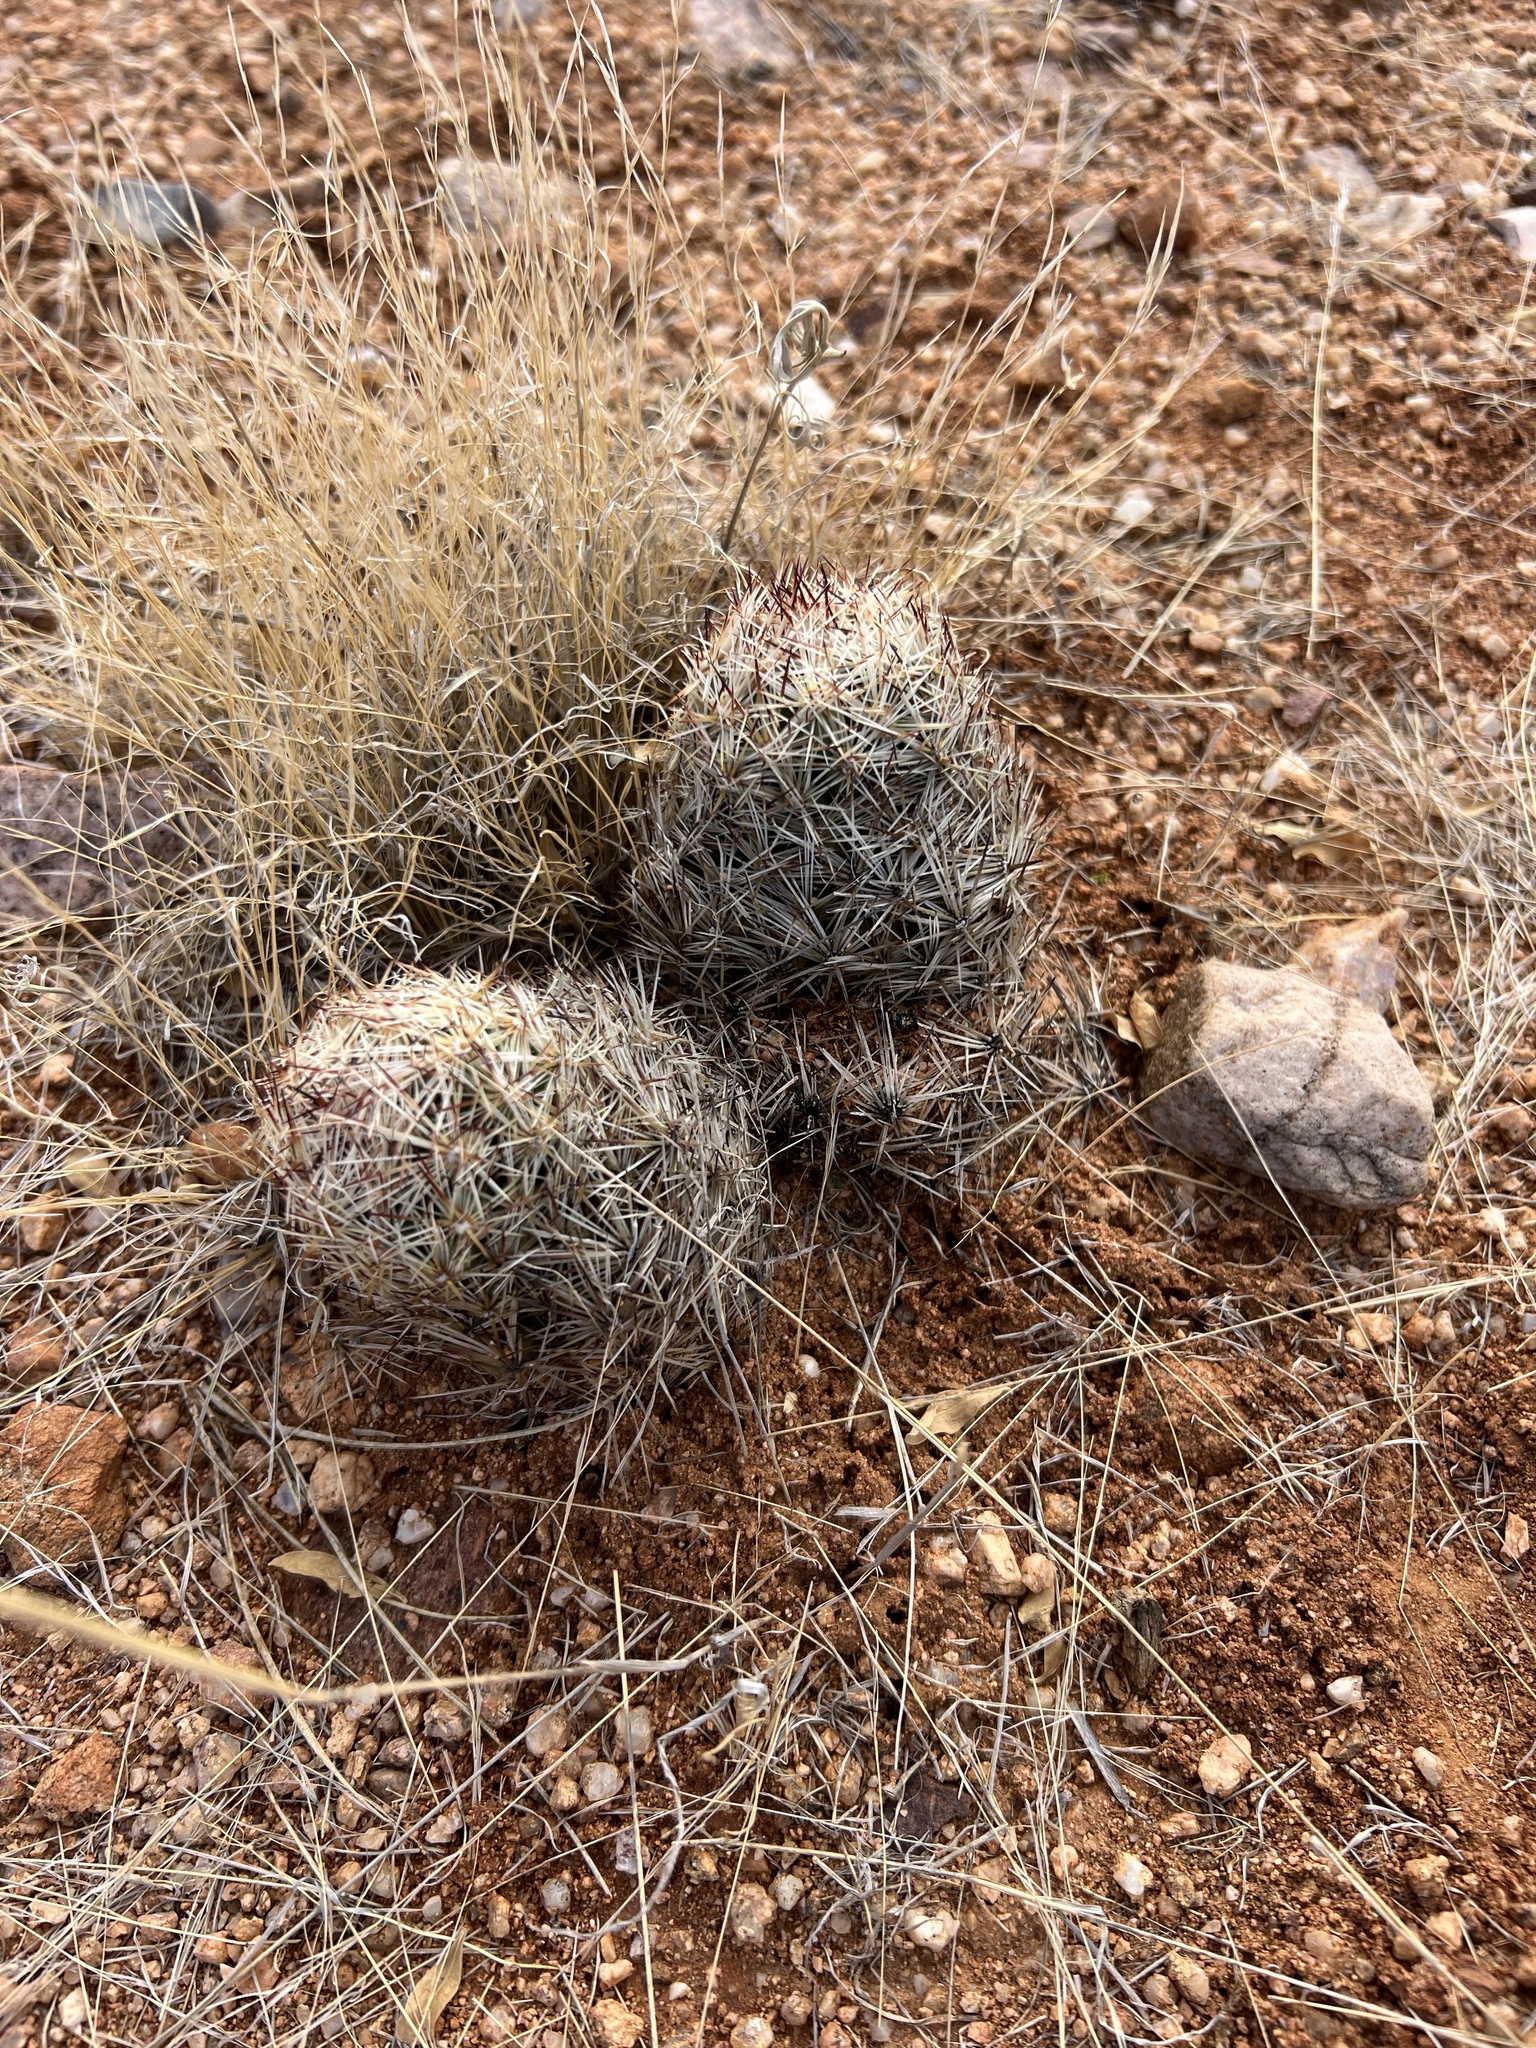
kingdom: Plantae
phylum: Tracheophyta
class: Magnoliopsida
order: Caryophyllales
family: Cactaceae
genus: Pelecyphora
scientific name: Pelecyphora vivipara
